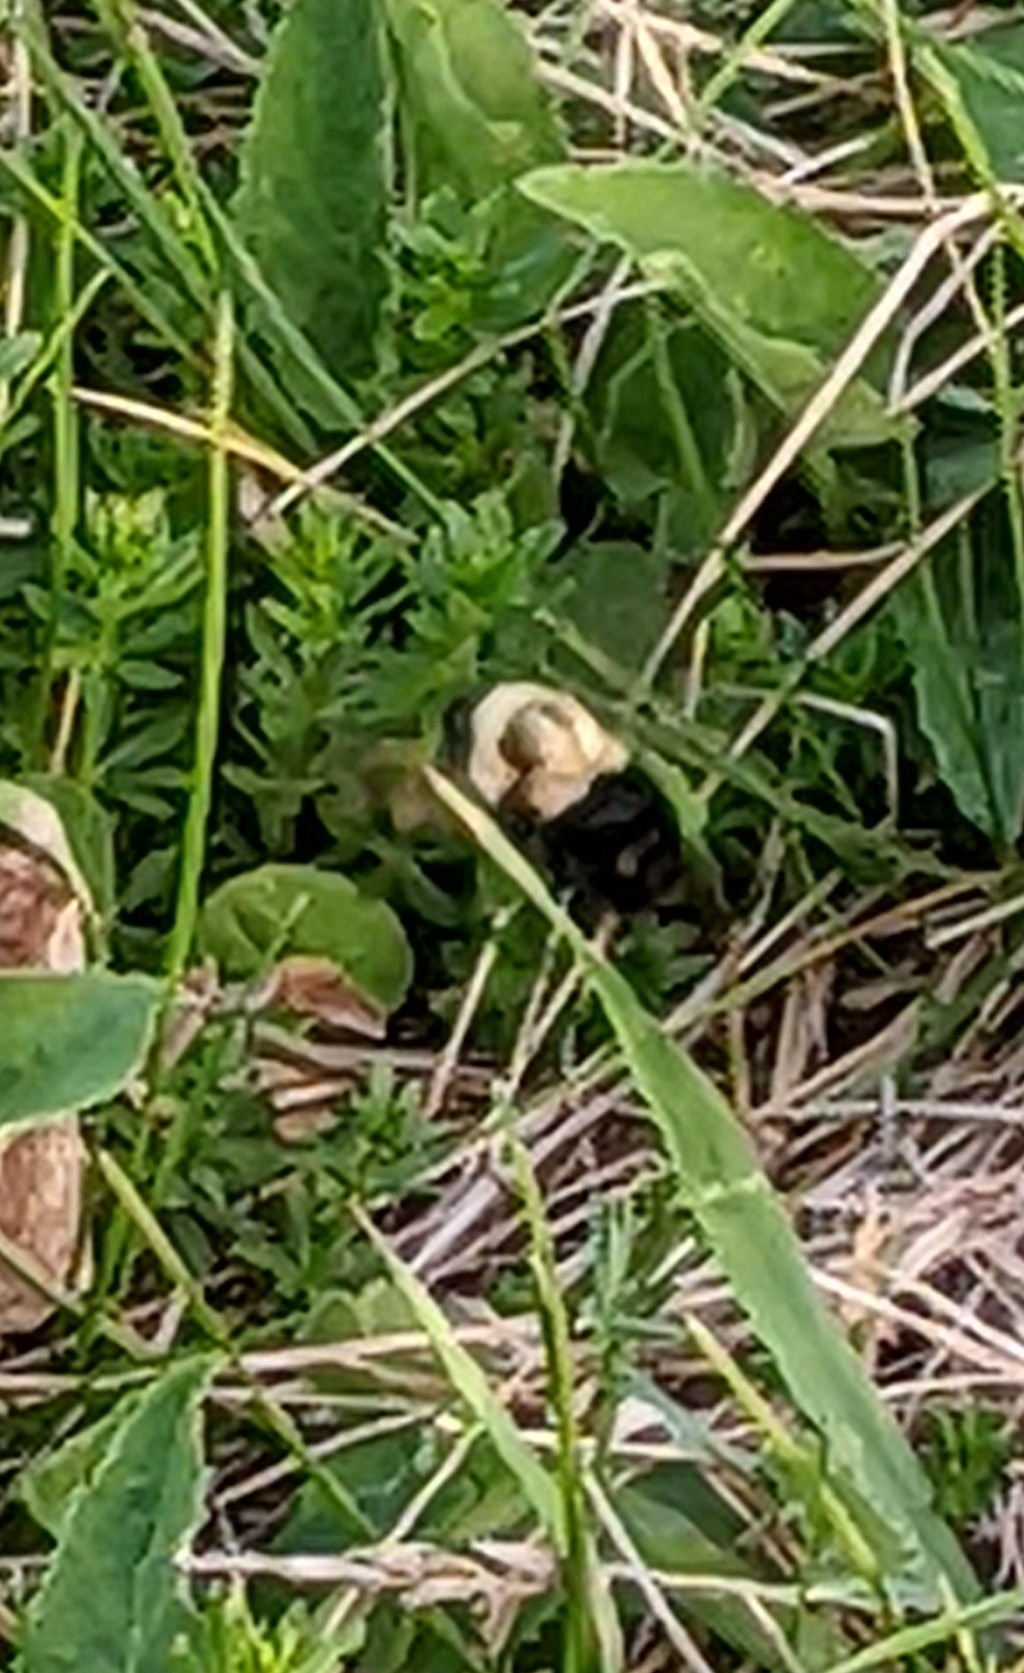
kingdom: Animalia
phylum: Arthropoda
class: Insecta
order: Hymenoptera
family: Apidae
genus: Bombus
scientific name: Bombus impatiens
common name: Common eastern bumble bee
